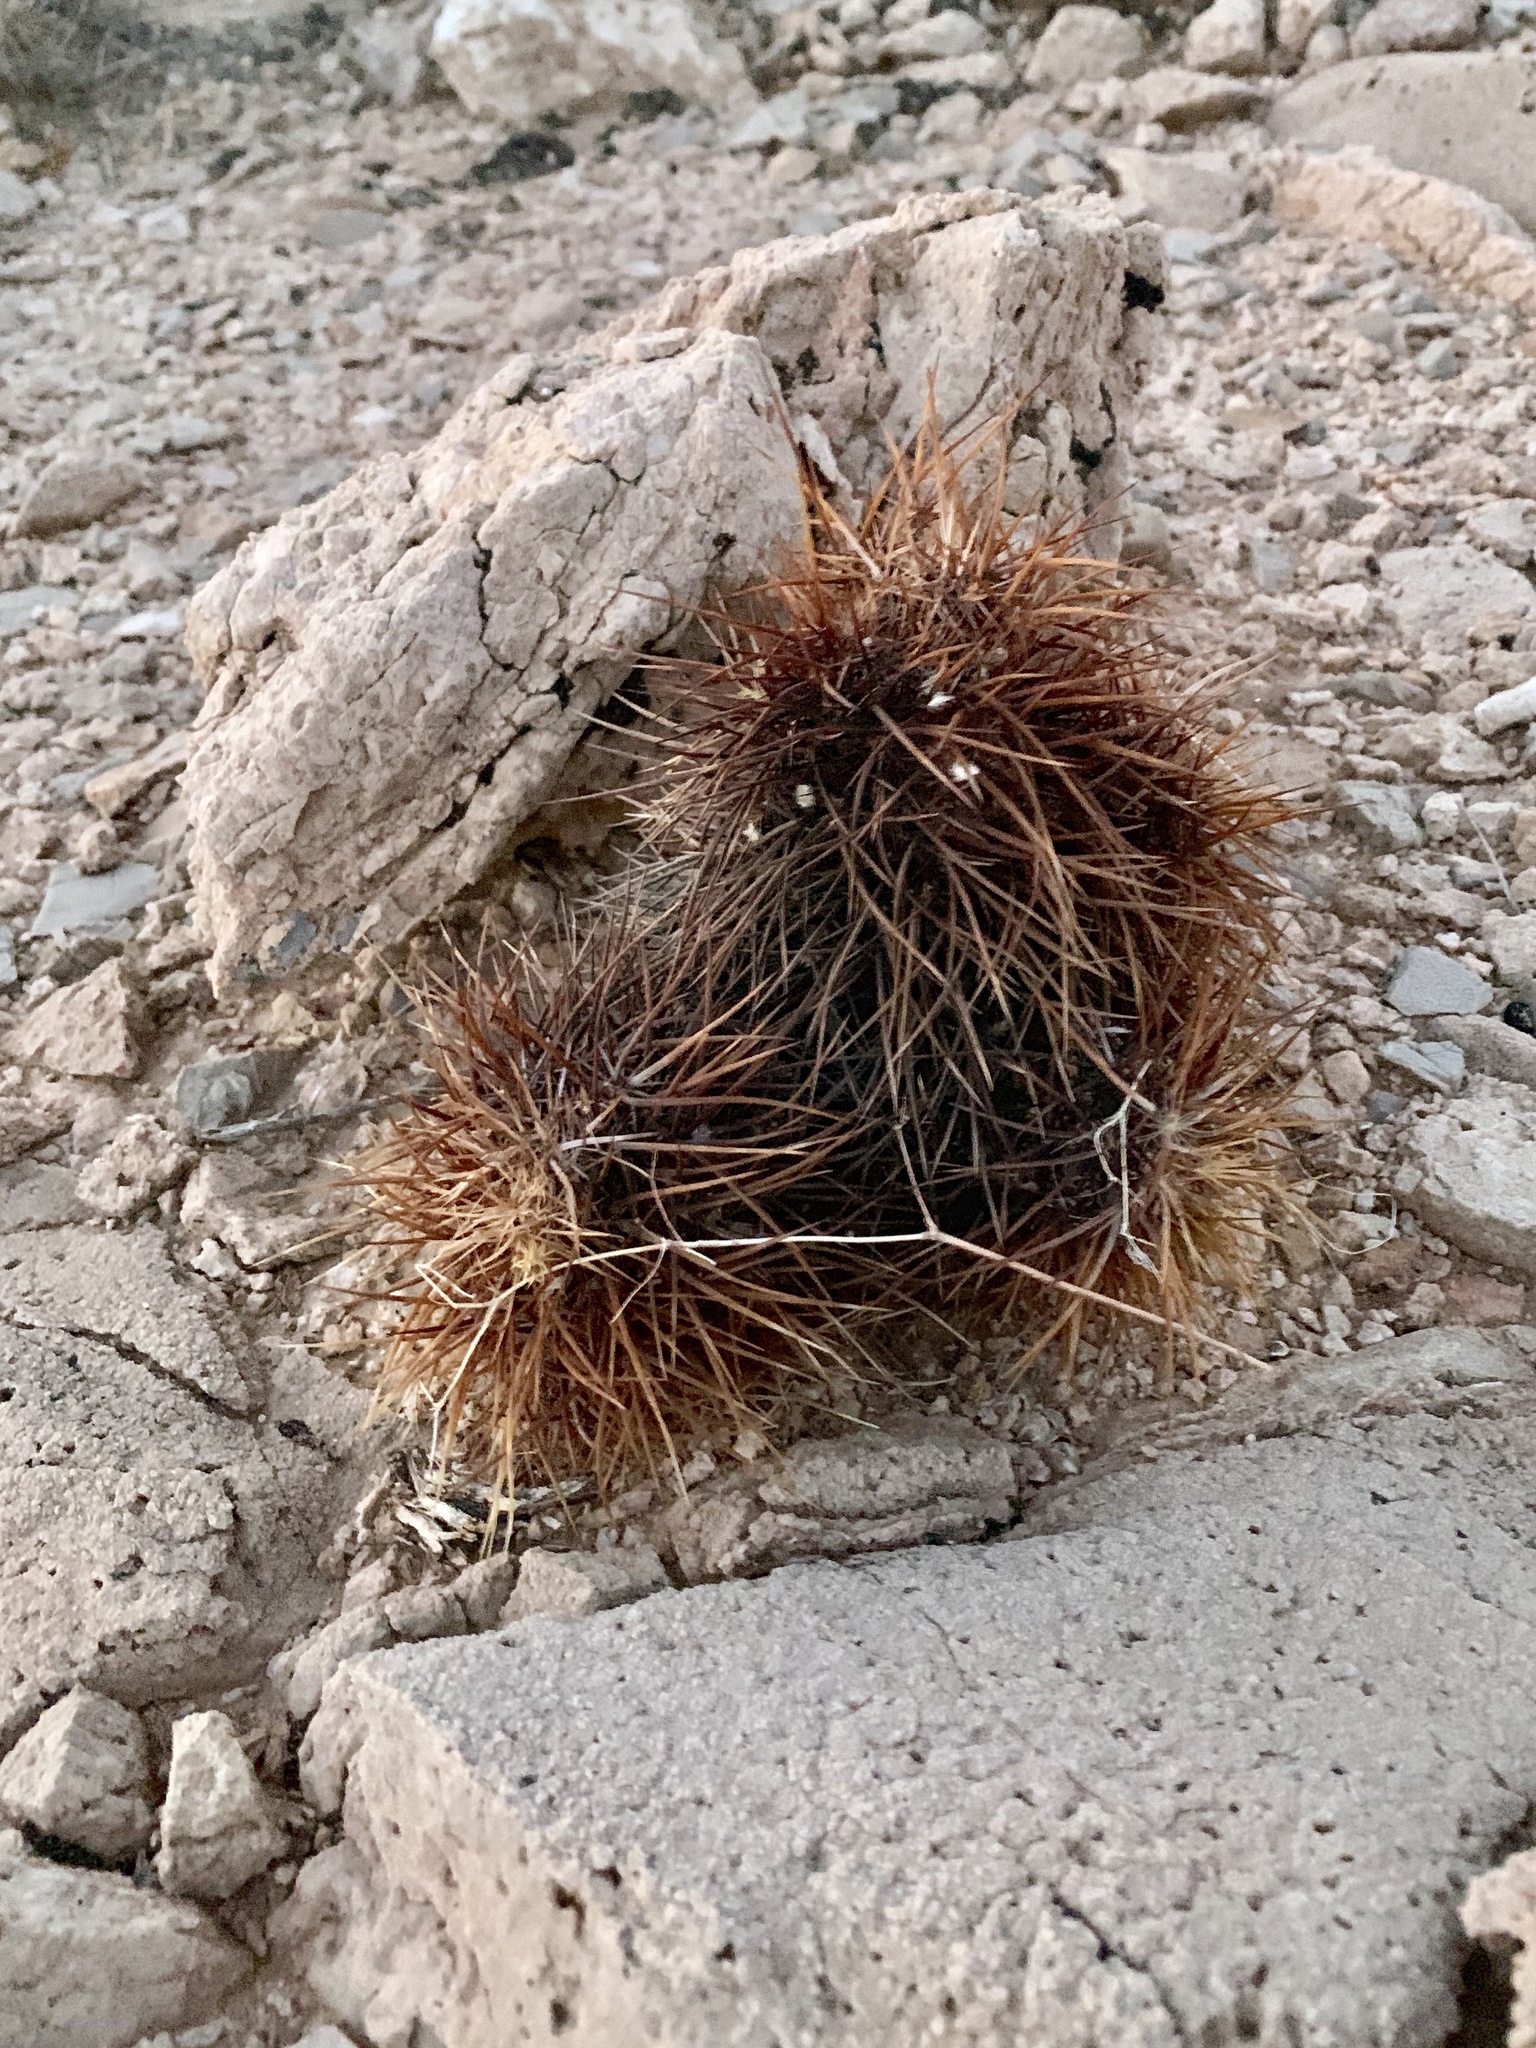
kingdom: Plantae
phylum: Tracheophyta
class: Magnoliopsida
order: Caryophyllales
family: Cactaceae
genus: Echinocereus
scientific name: Echinocereus engelmannii
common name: Engelmann's hedgehog cactus
